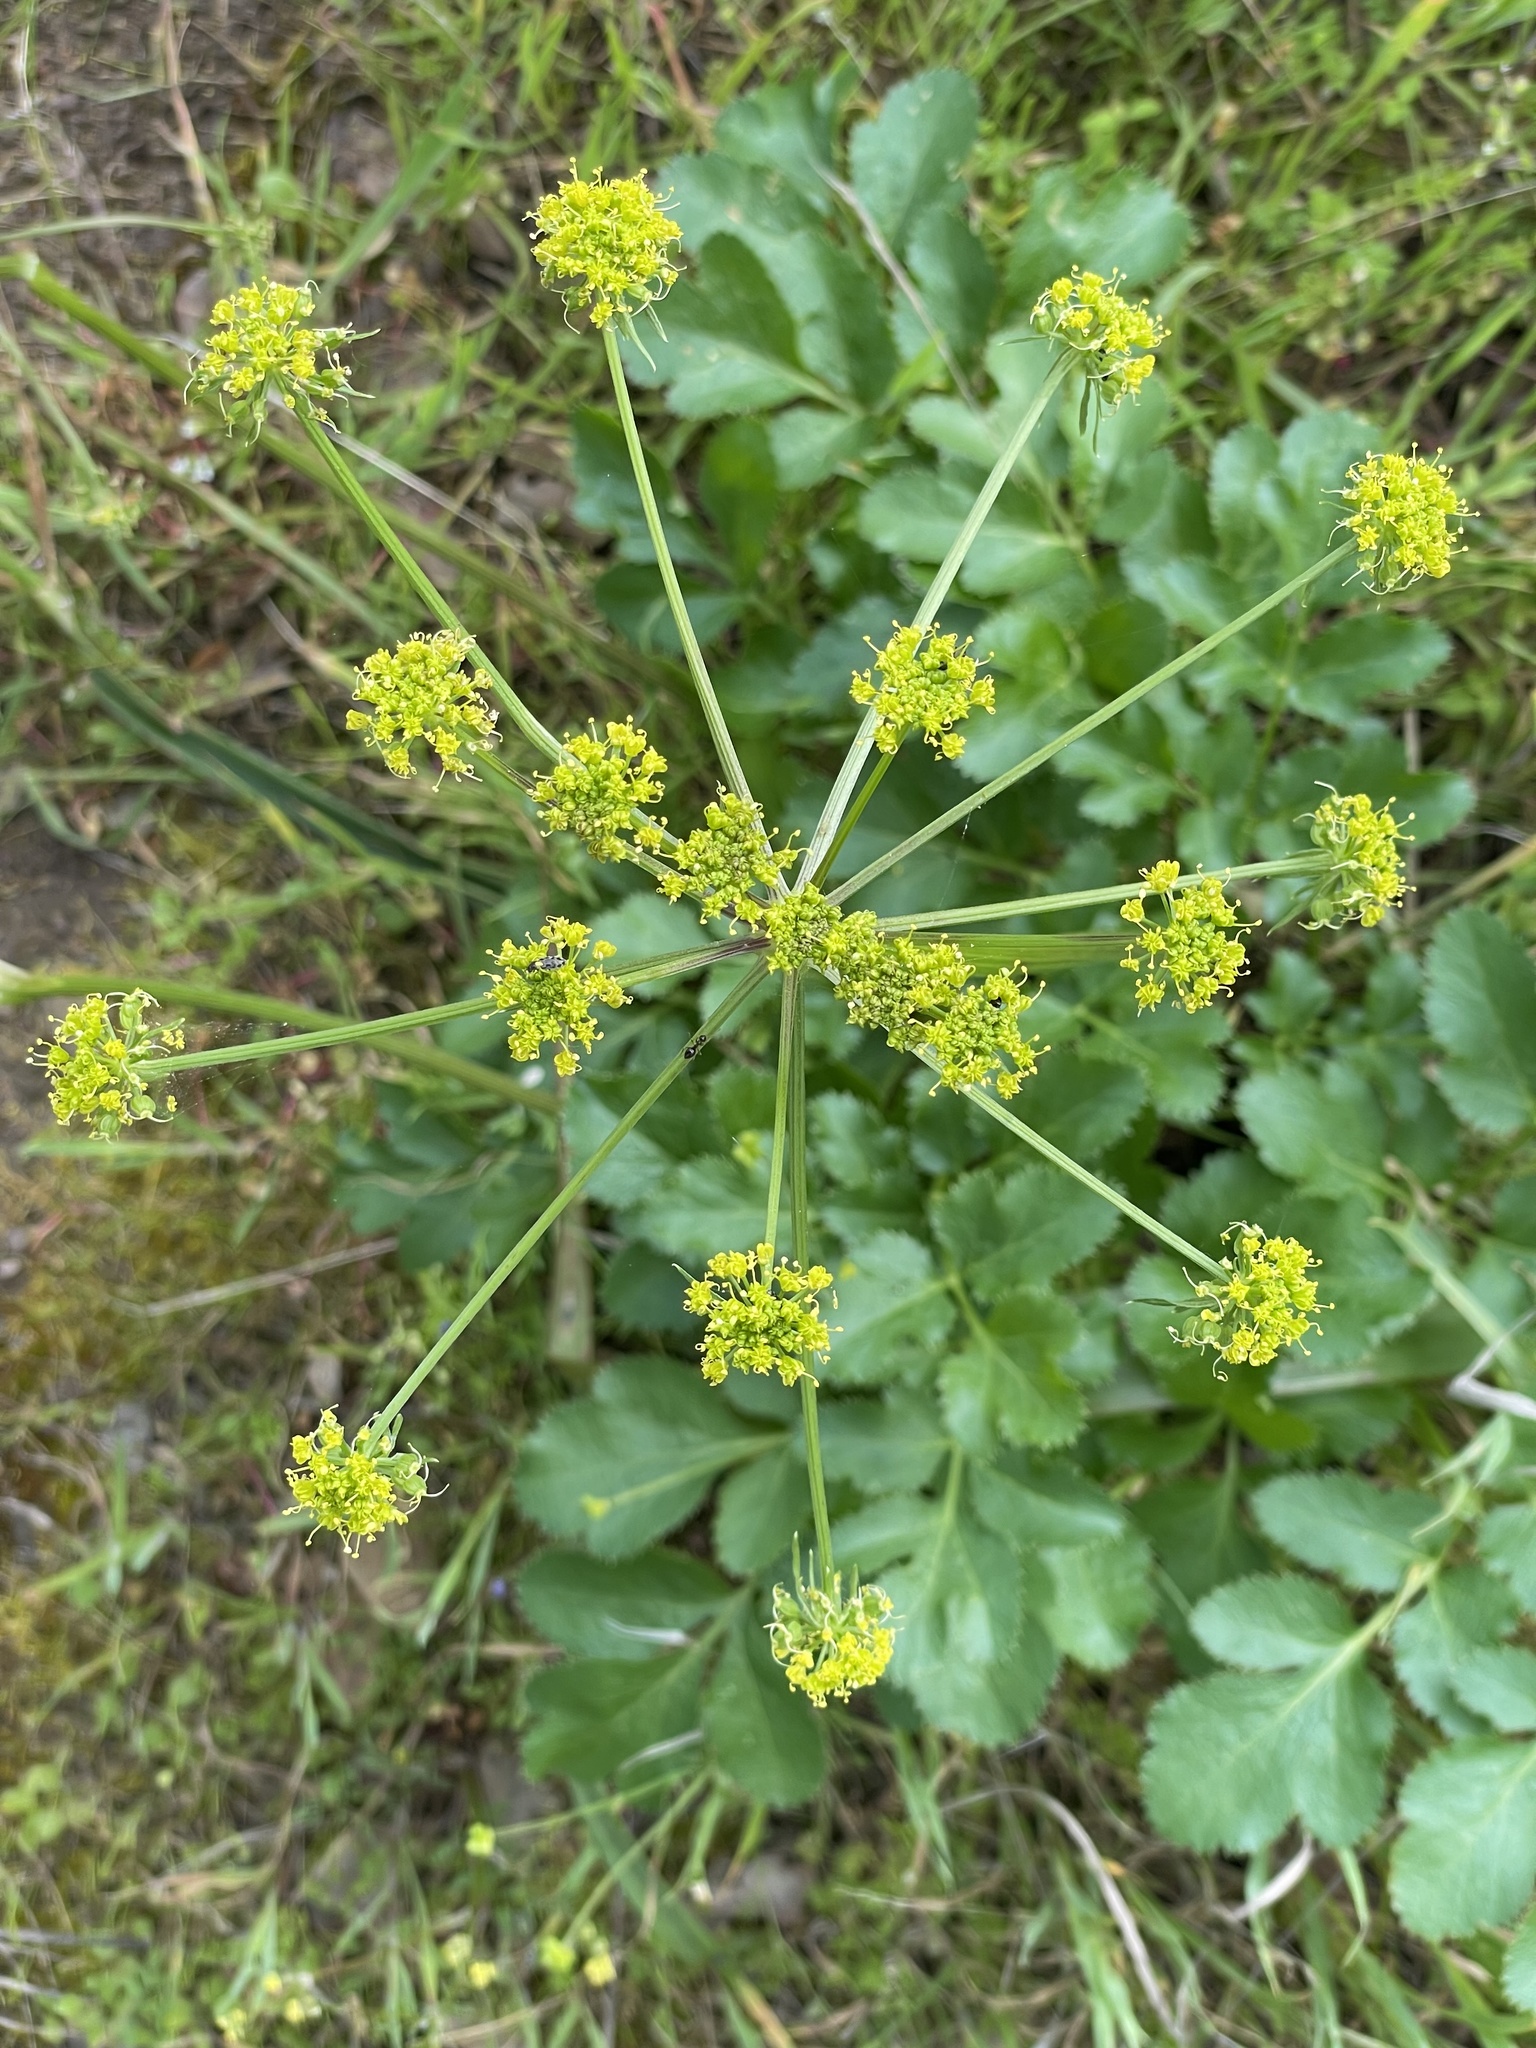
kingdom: Plantae
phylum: Tracheophyta
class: Magnoliopsida
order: Apiales
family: Apiaceae
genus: Tauschia
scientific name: Tauschia hartwegii
